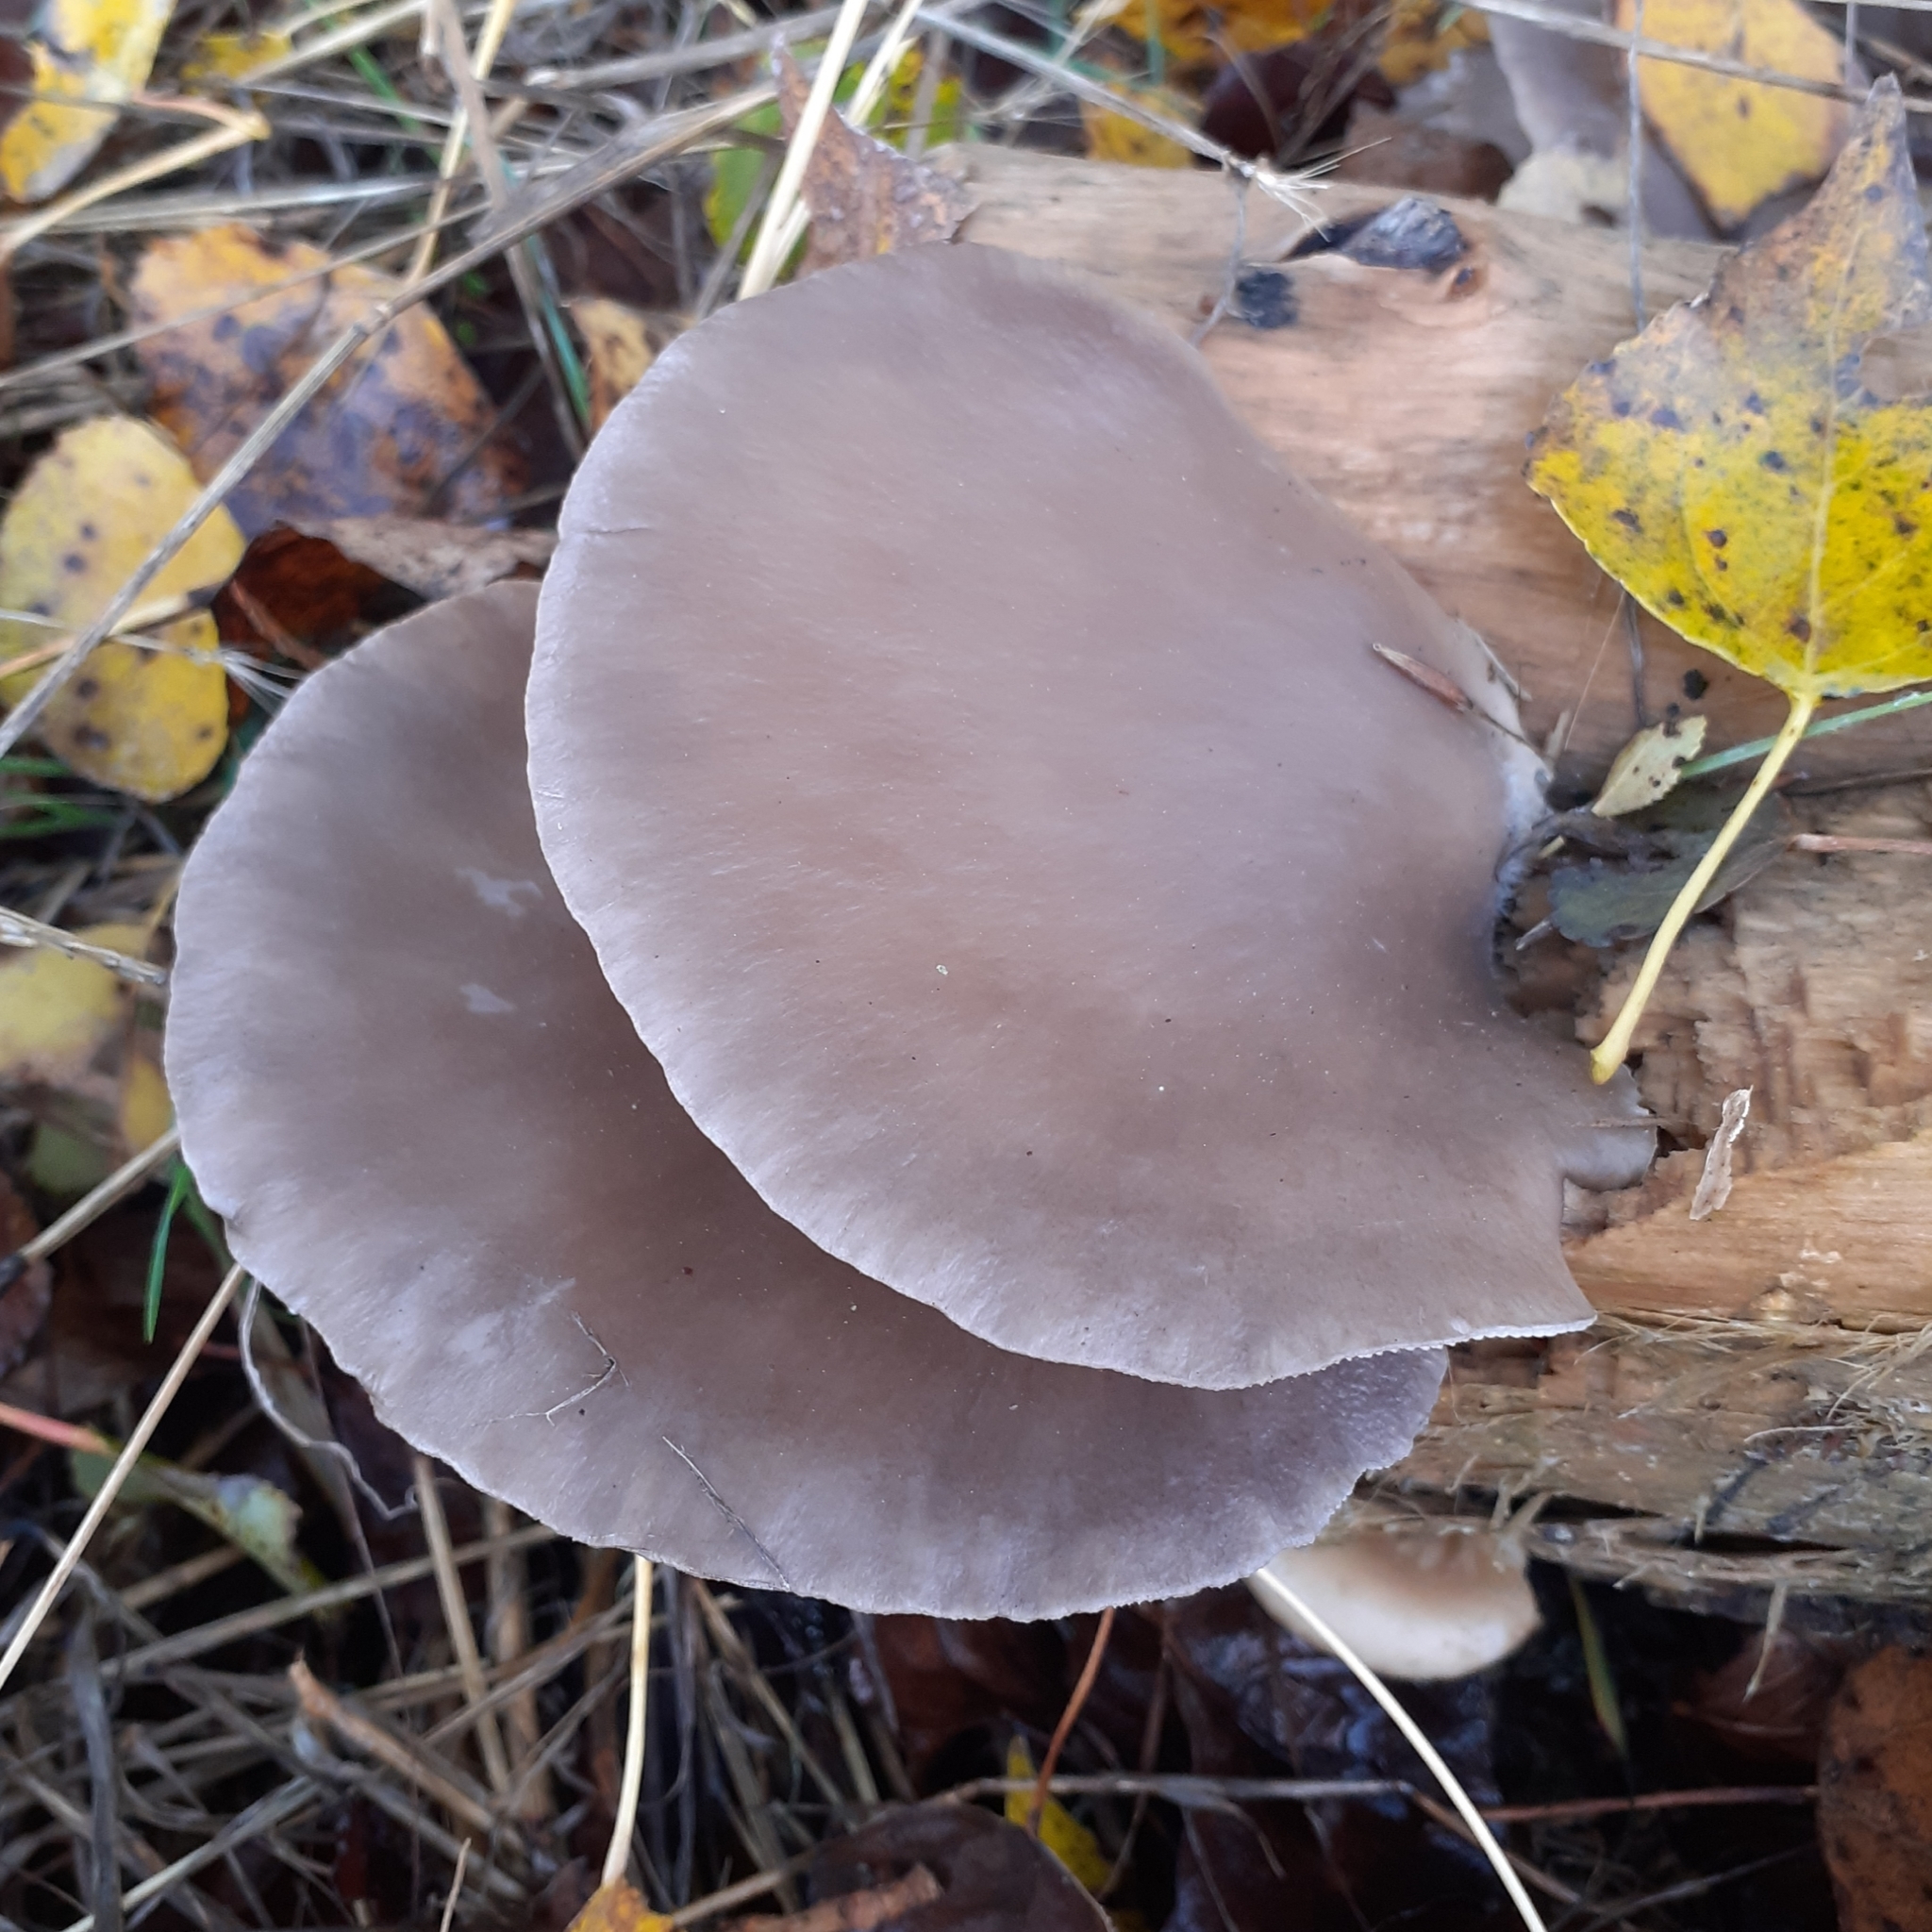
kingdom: Fungi
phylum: Basidiomycota
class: Agaricomycetes
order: Agaricales
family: Pleurotaceae
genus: Pleurotus
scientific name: Pleurotus ostreatus
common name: Oyster mushroom
